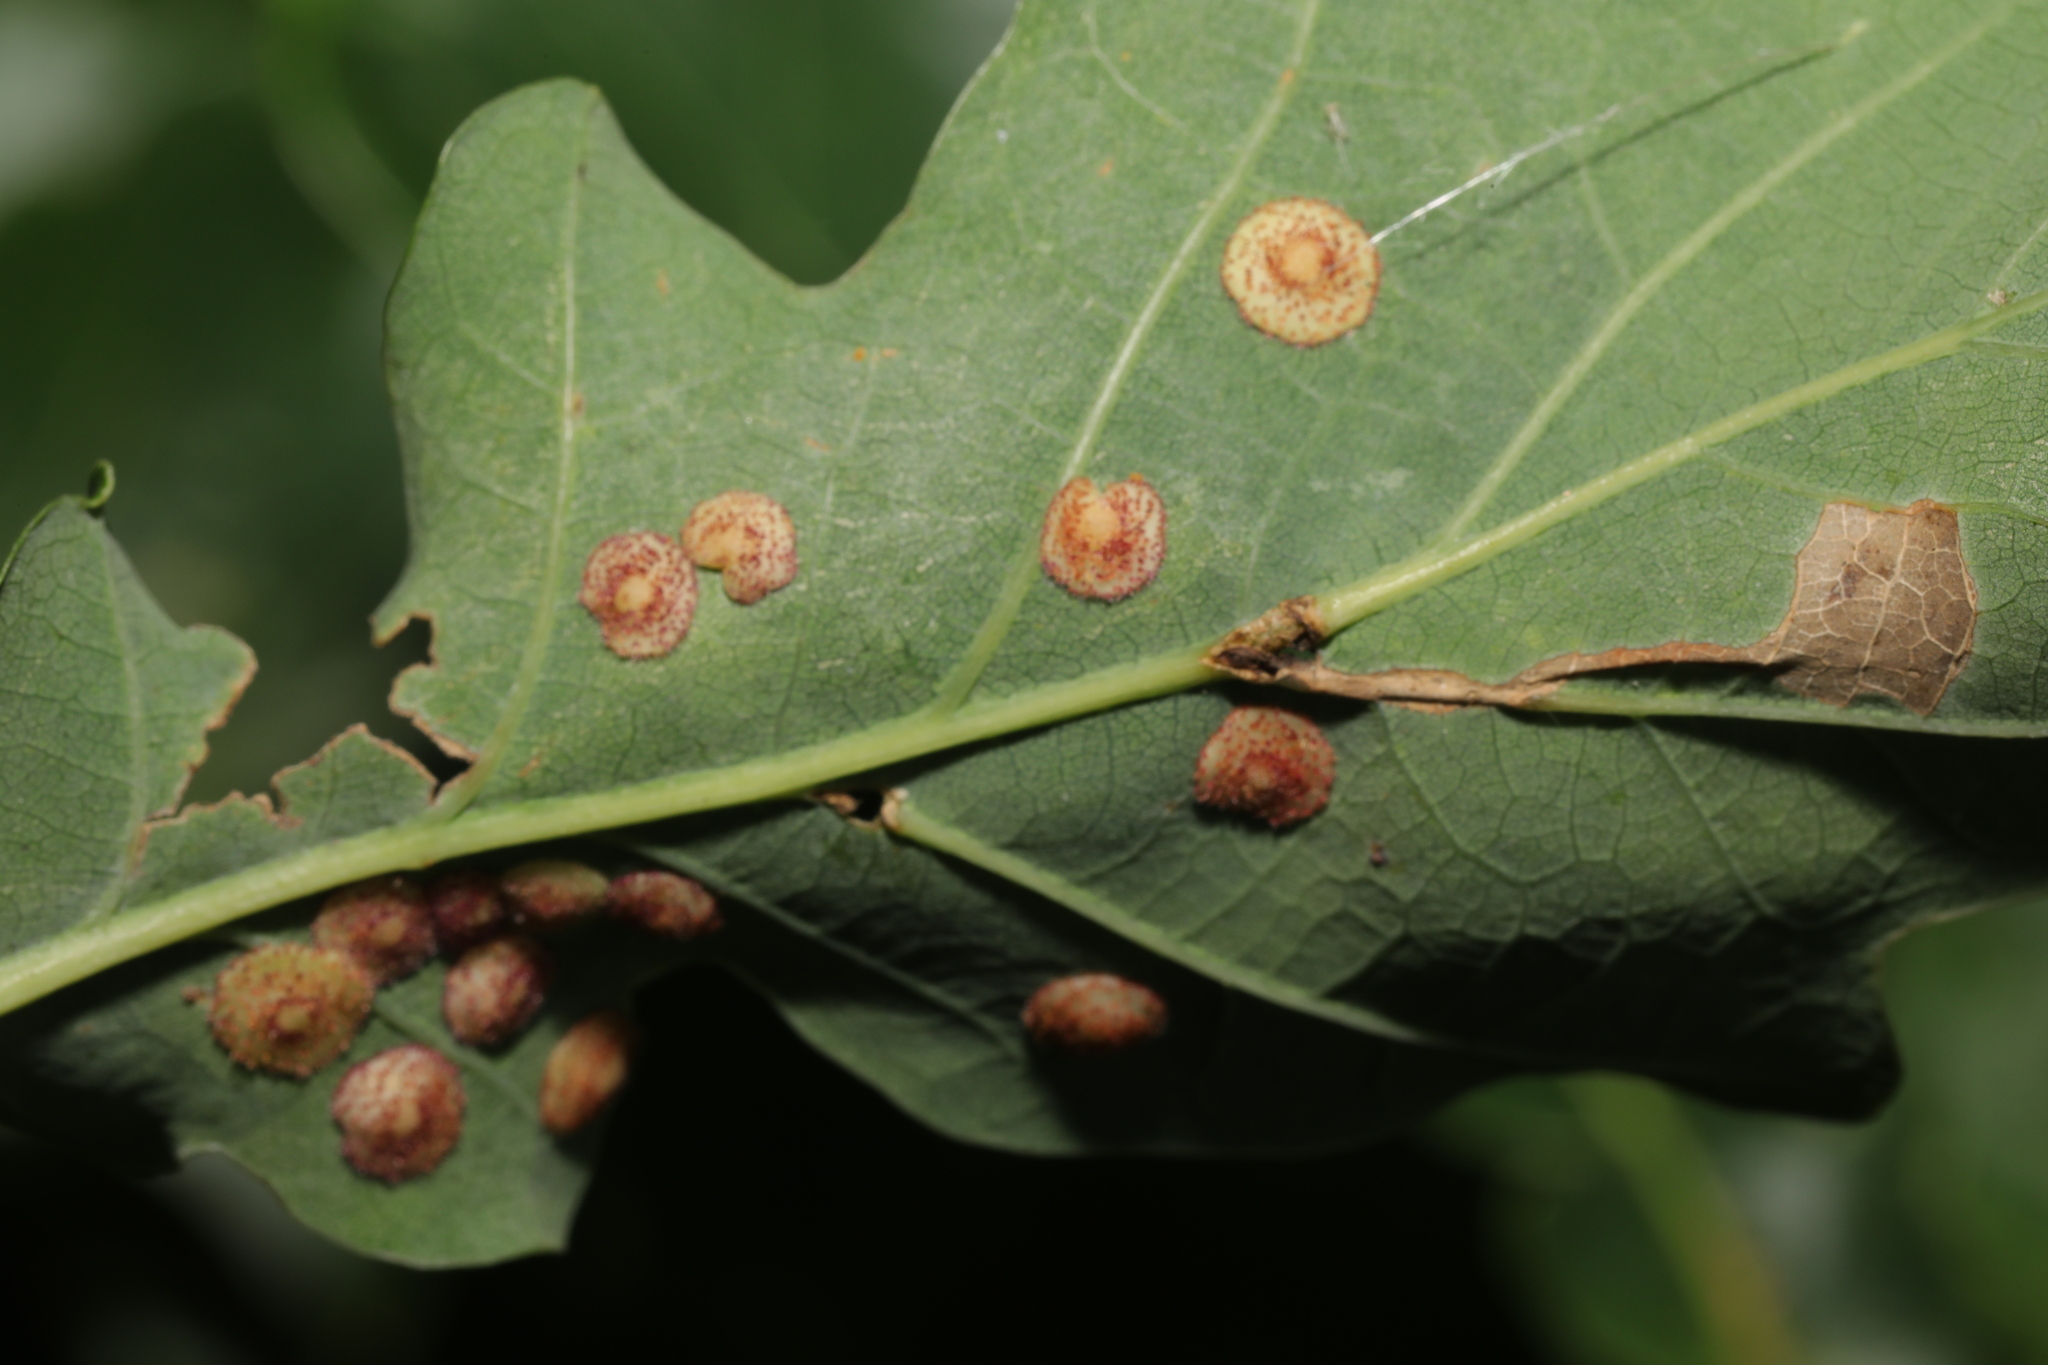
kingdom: Animalia
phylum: Arthropoda
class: Insecta
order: Hymenoptera
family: Cynipidae
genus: Neuroterus
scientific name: Neuroterus quercusbaccarum
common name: Common spangle gall
